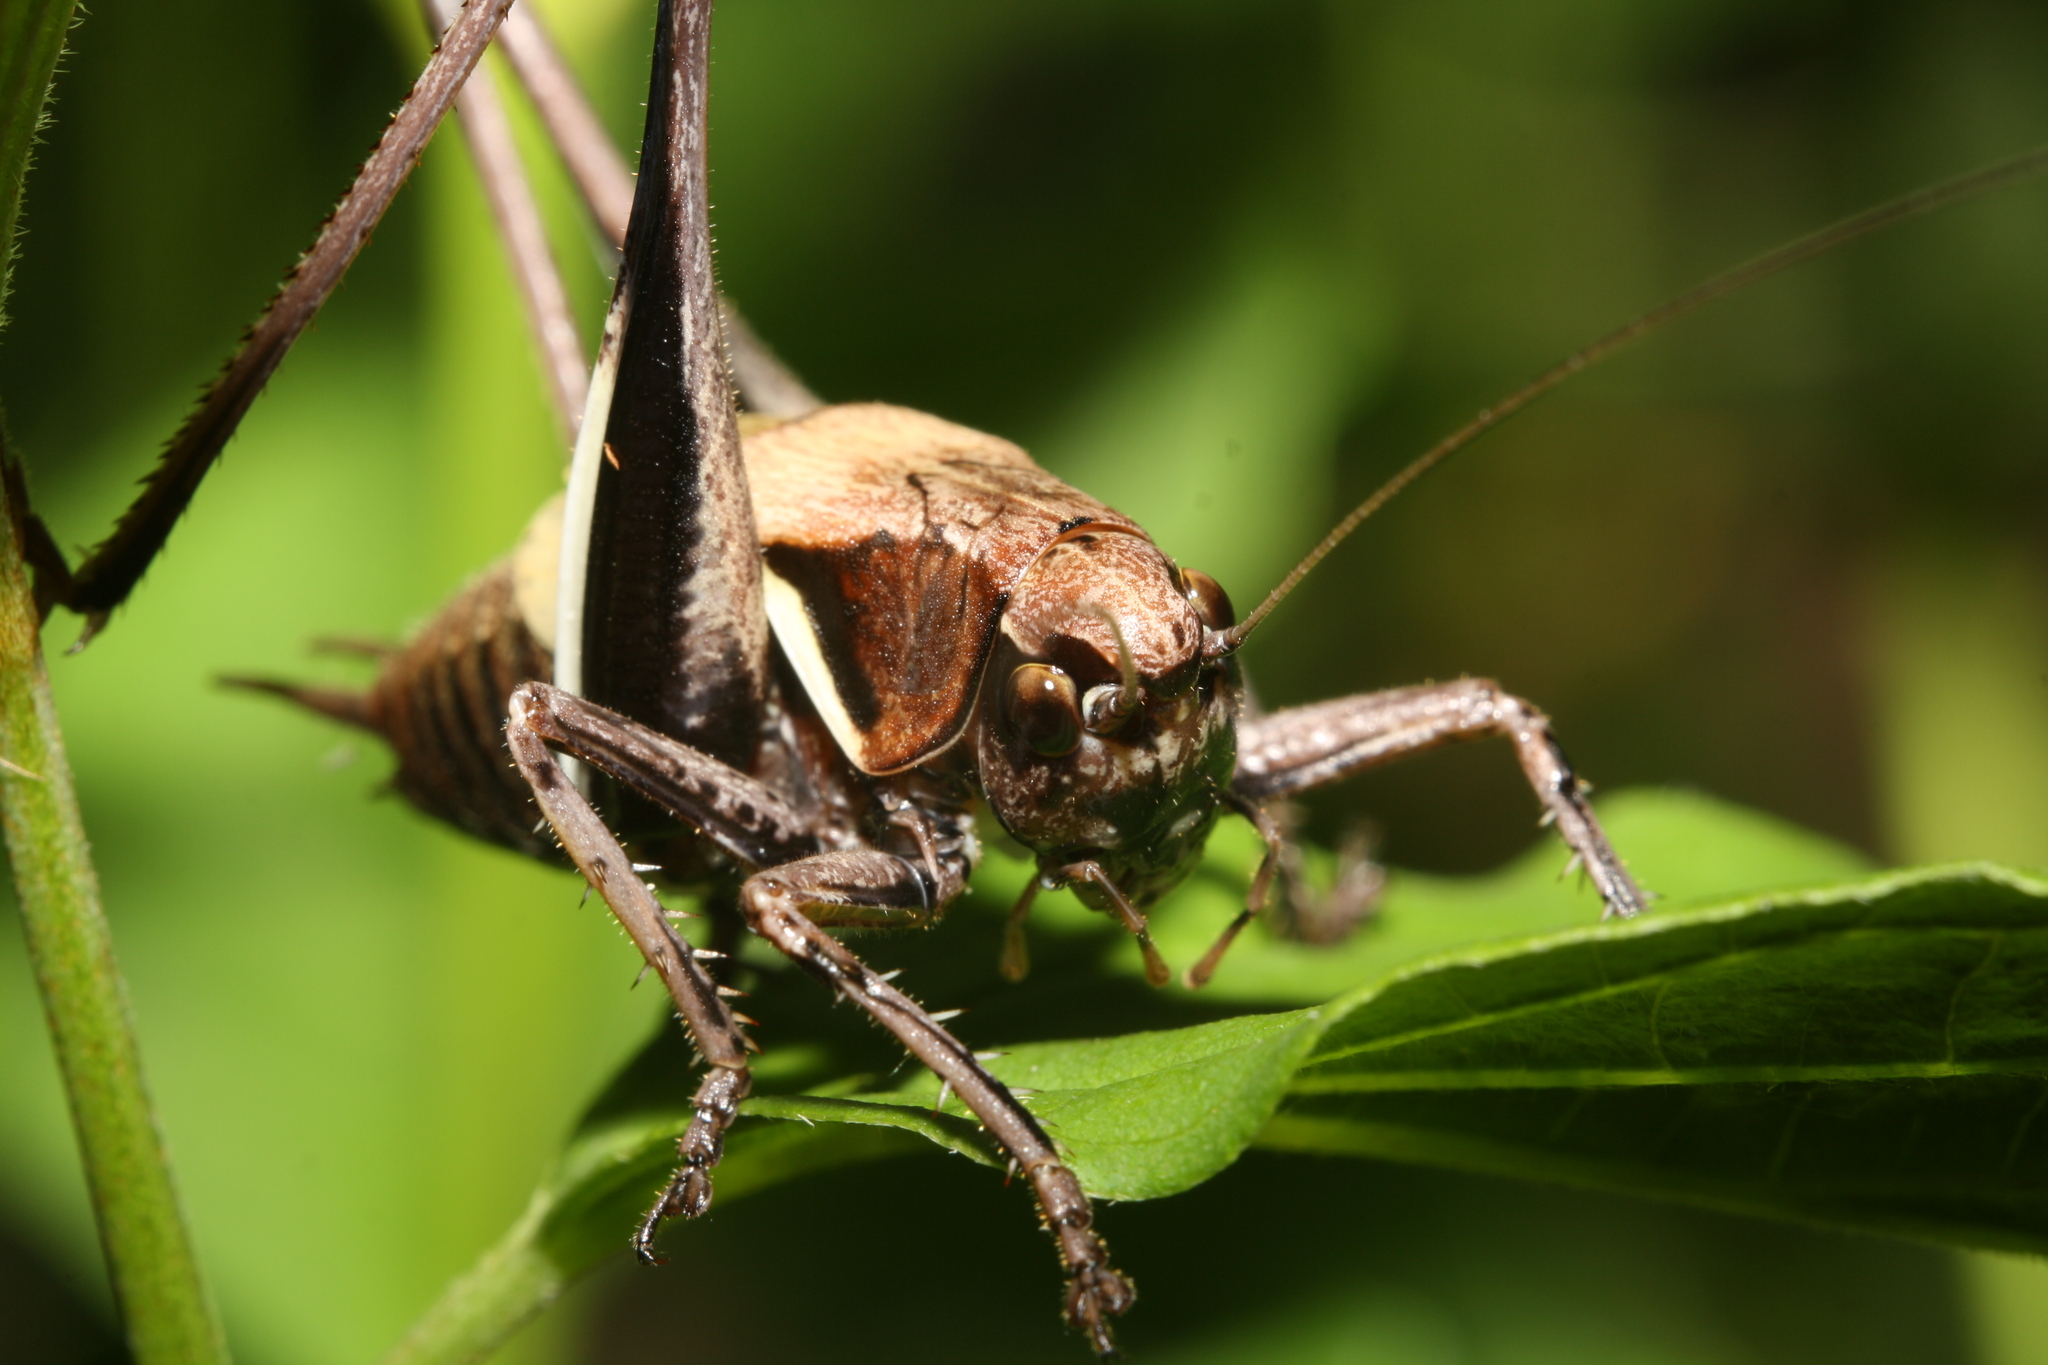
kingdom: Animalia
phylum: Arthropoda
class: Insecta
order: Orthoptera
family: Tettigoniidae
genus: Pholidoptera
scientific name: Pholidoptera aptera
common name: Alpine dark bush-cricket
